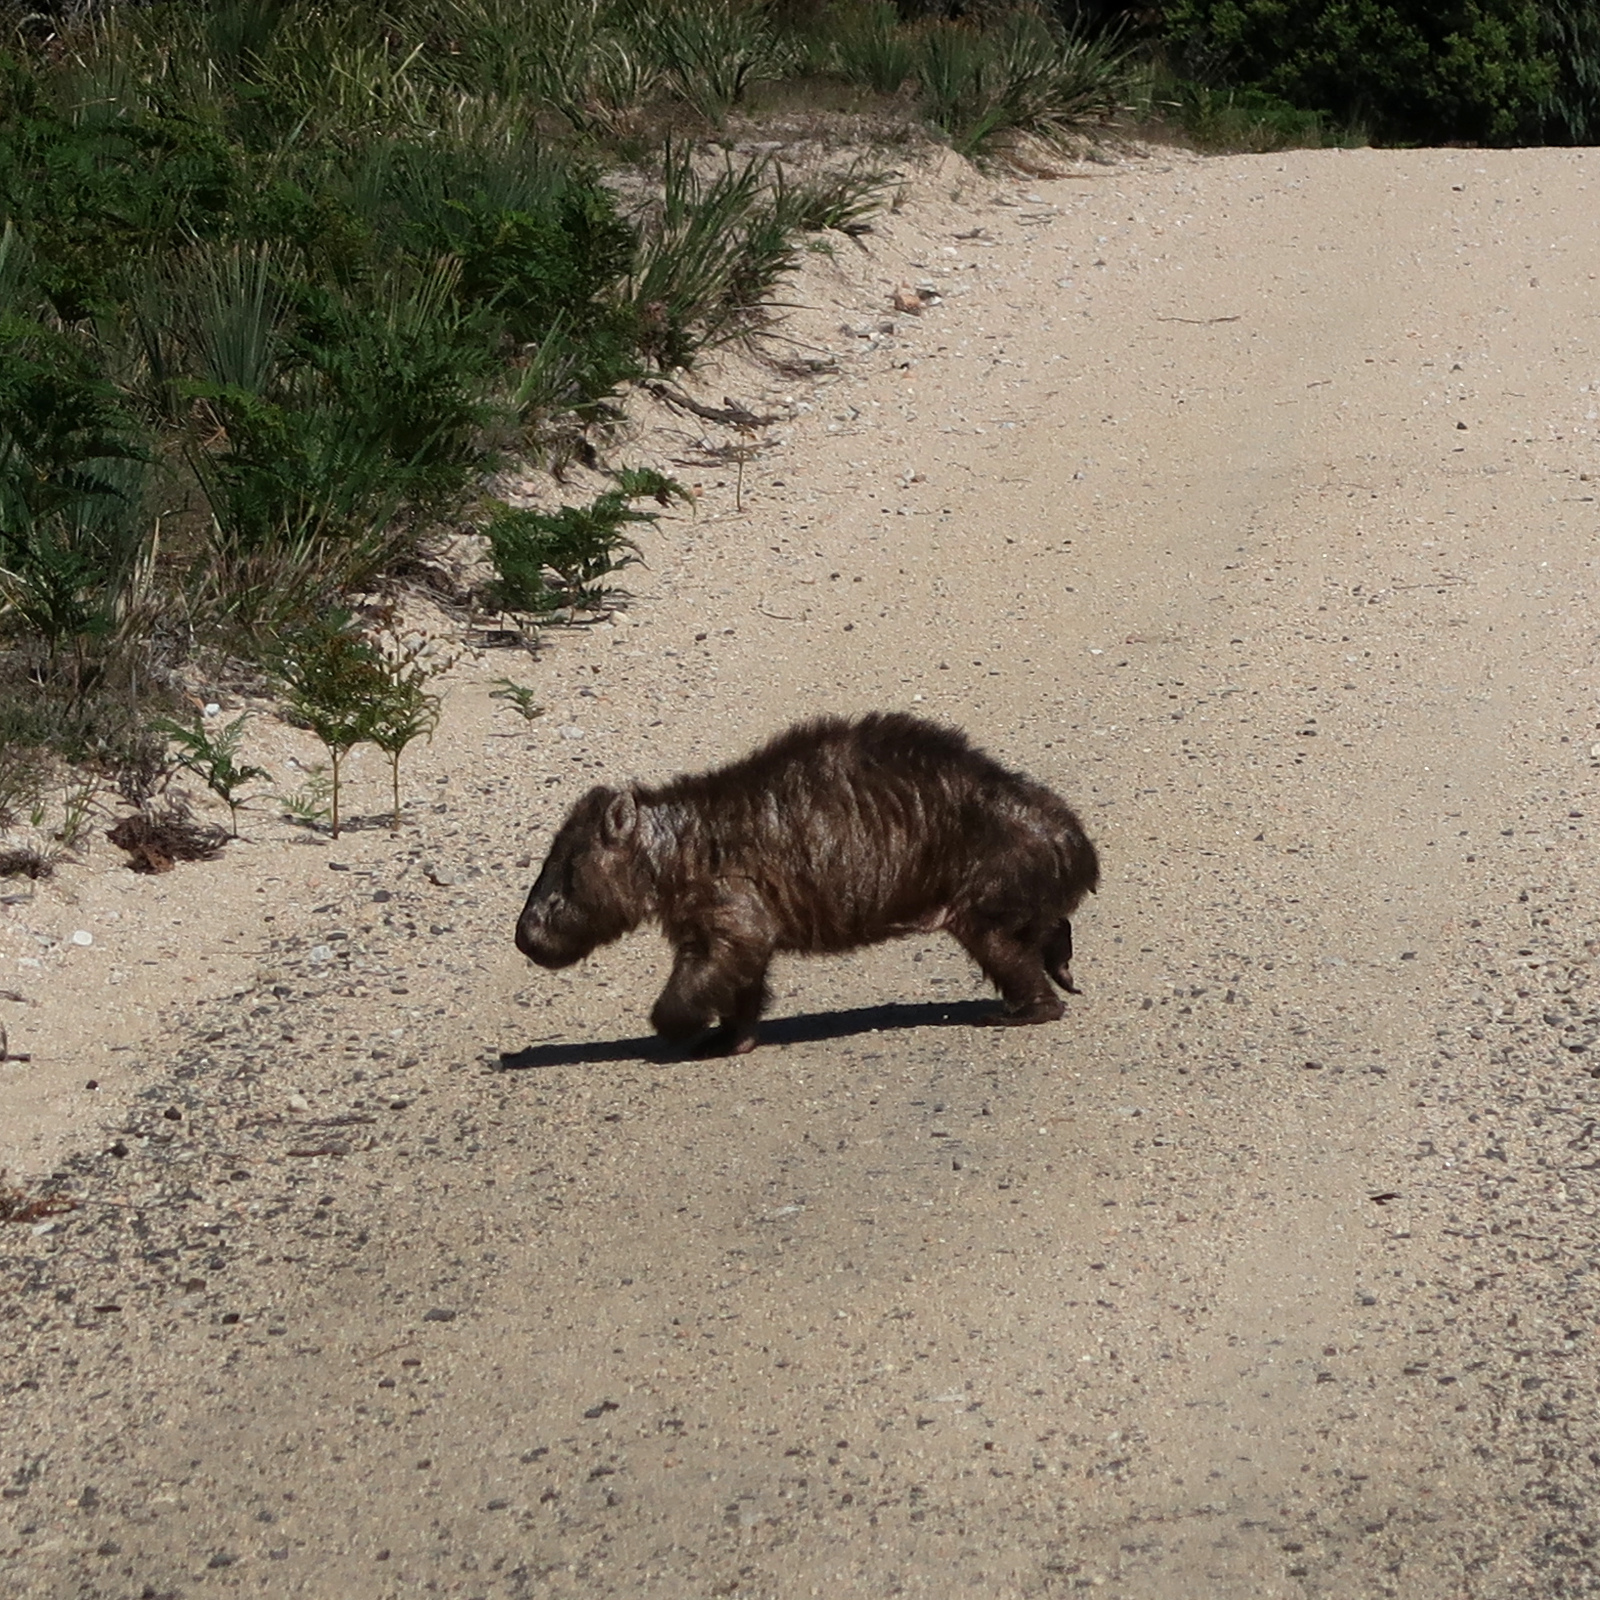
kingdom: Animalia
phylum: Chordata
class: Mammalia
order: Diprotodontia
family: Vombatidae
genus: Vombatus
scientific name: Vombatus ursinus
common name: Common wombat
